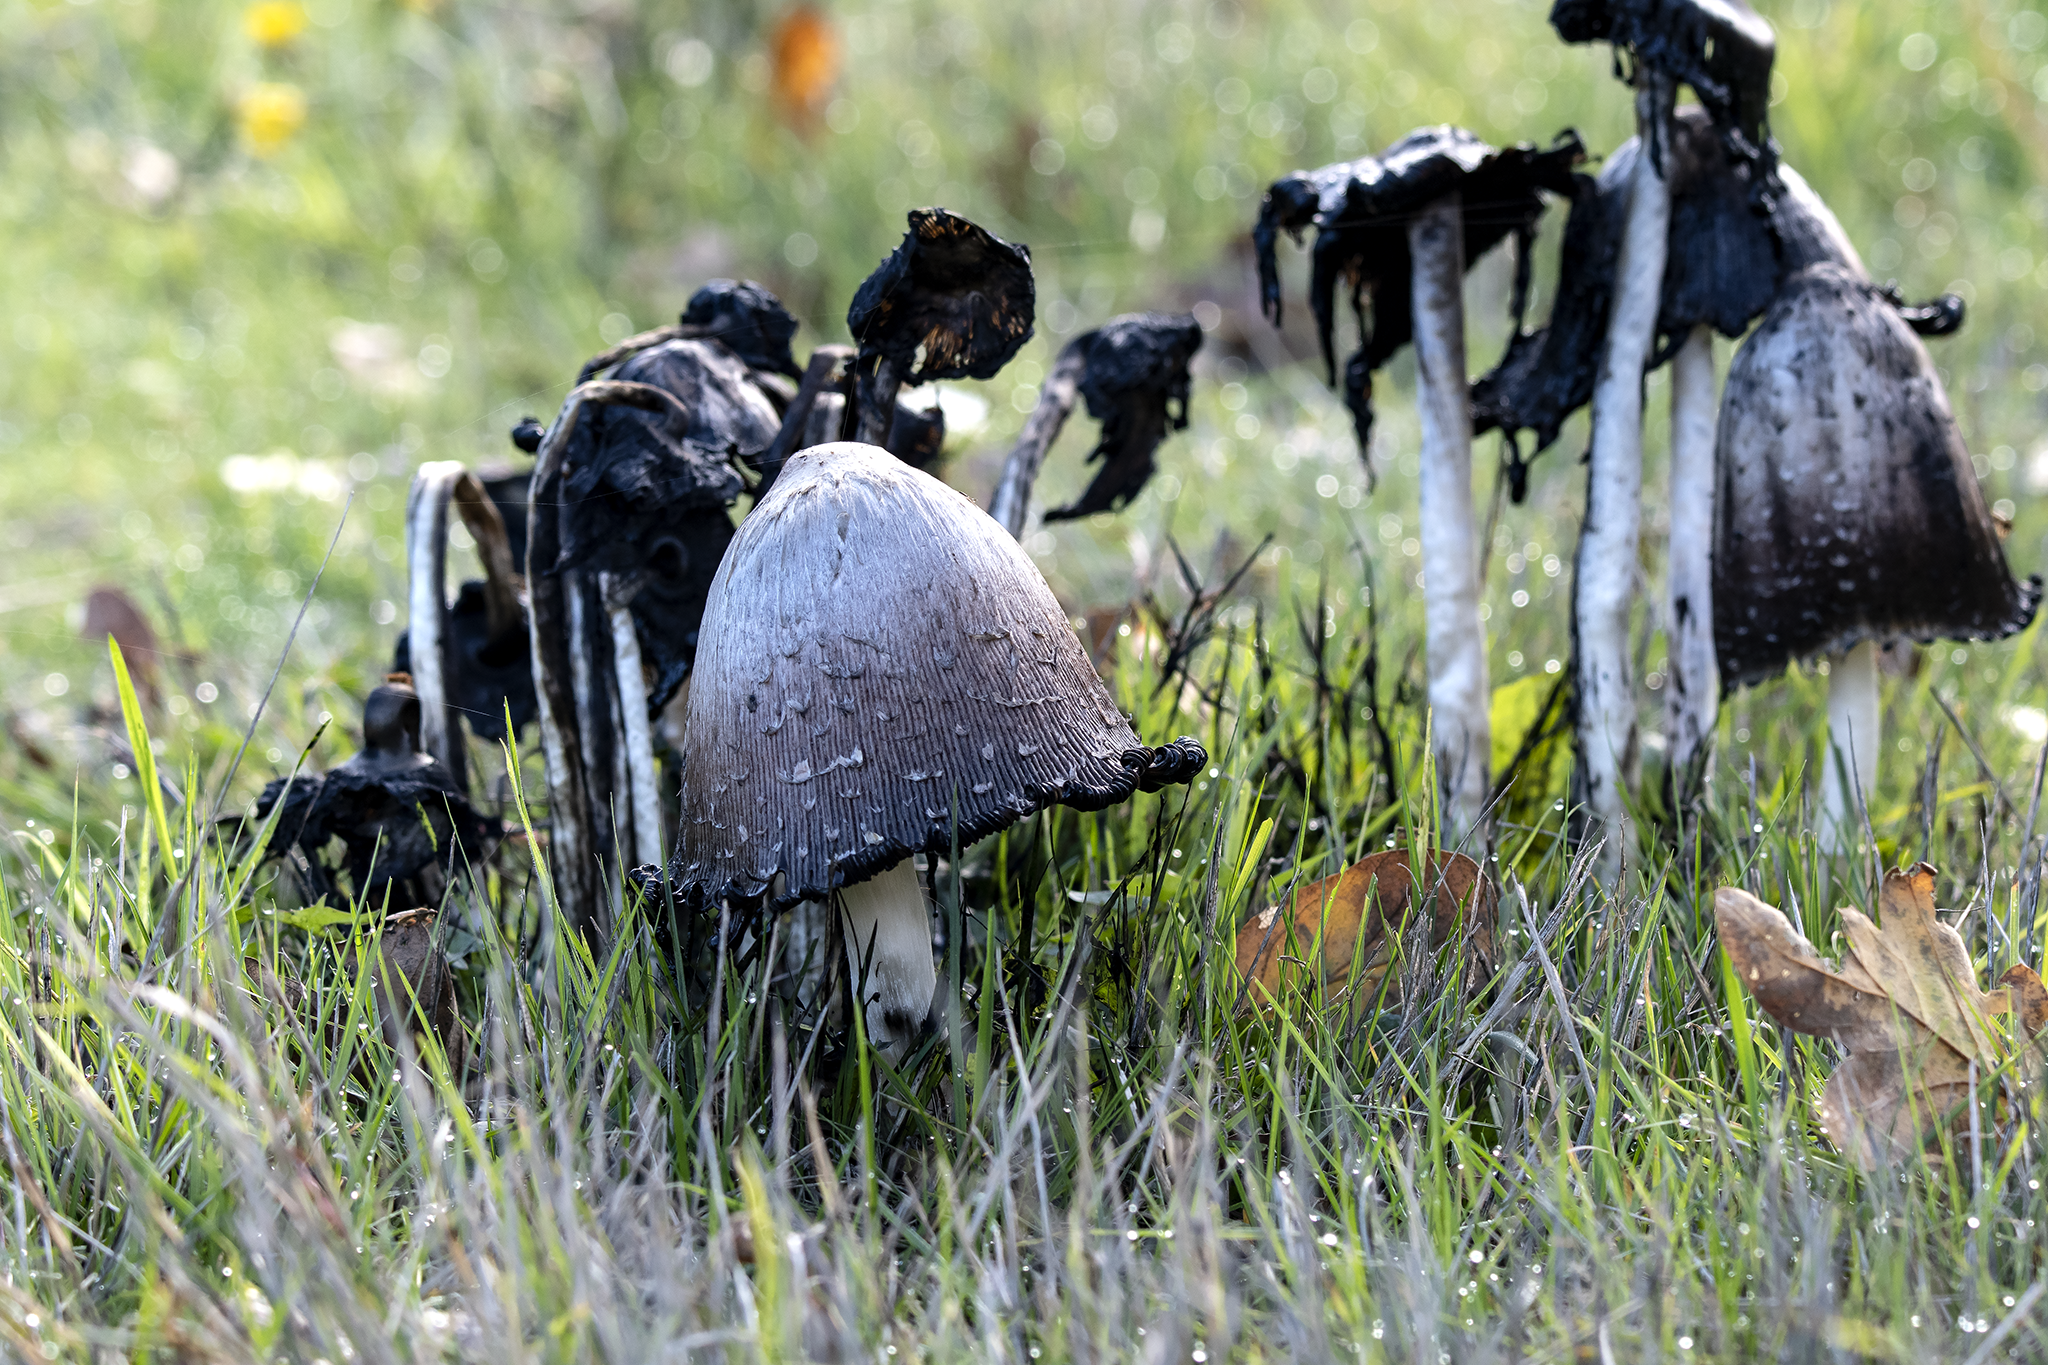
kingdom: Fungi
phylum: Basidiomycota
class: Agaricomycetes
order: Agaricales
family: Agaricaceae
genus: Coprinus
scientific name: Coprinus comatus
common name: Lawyer's wig
